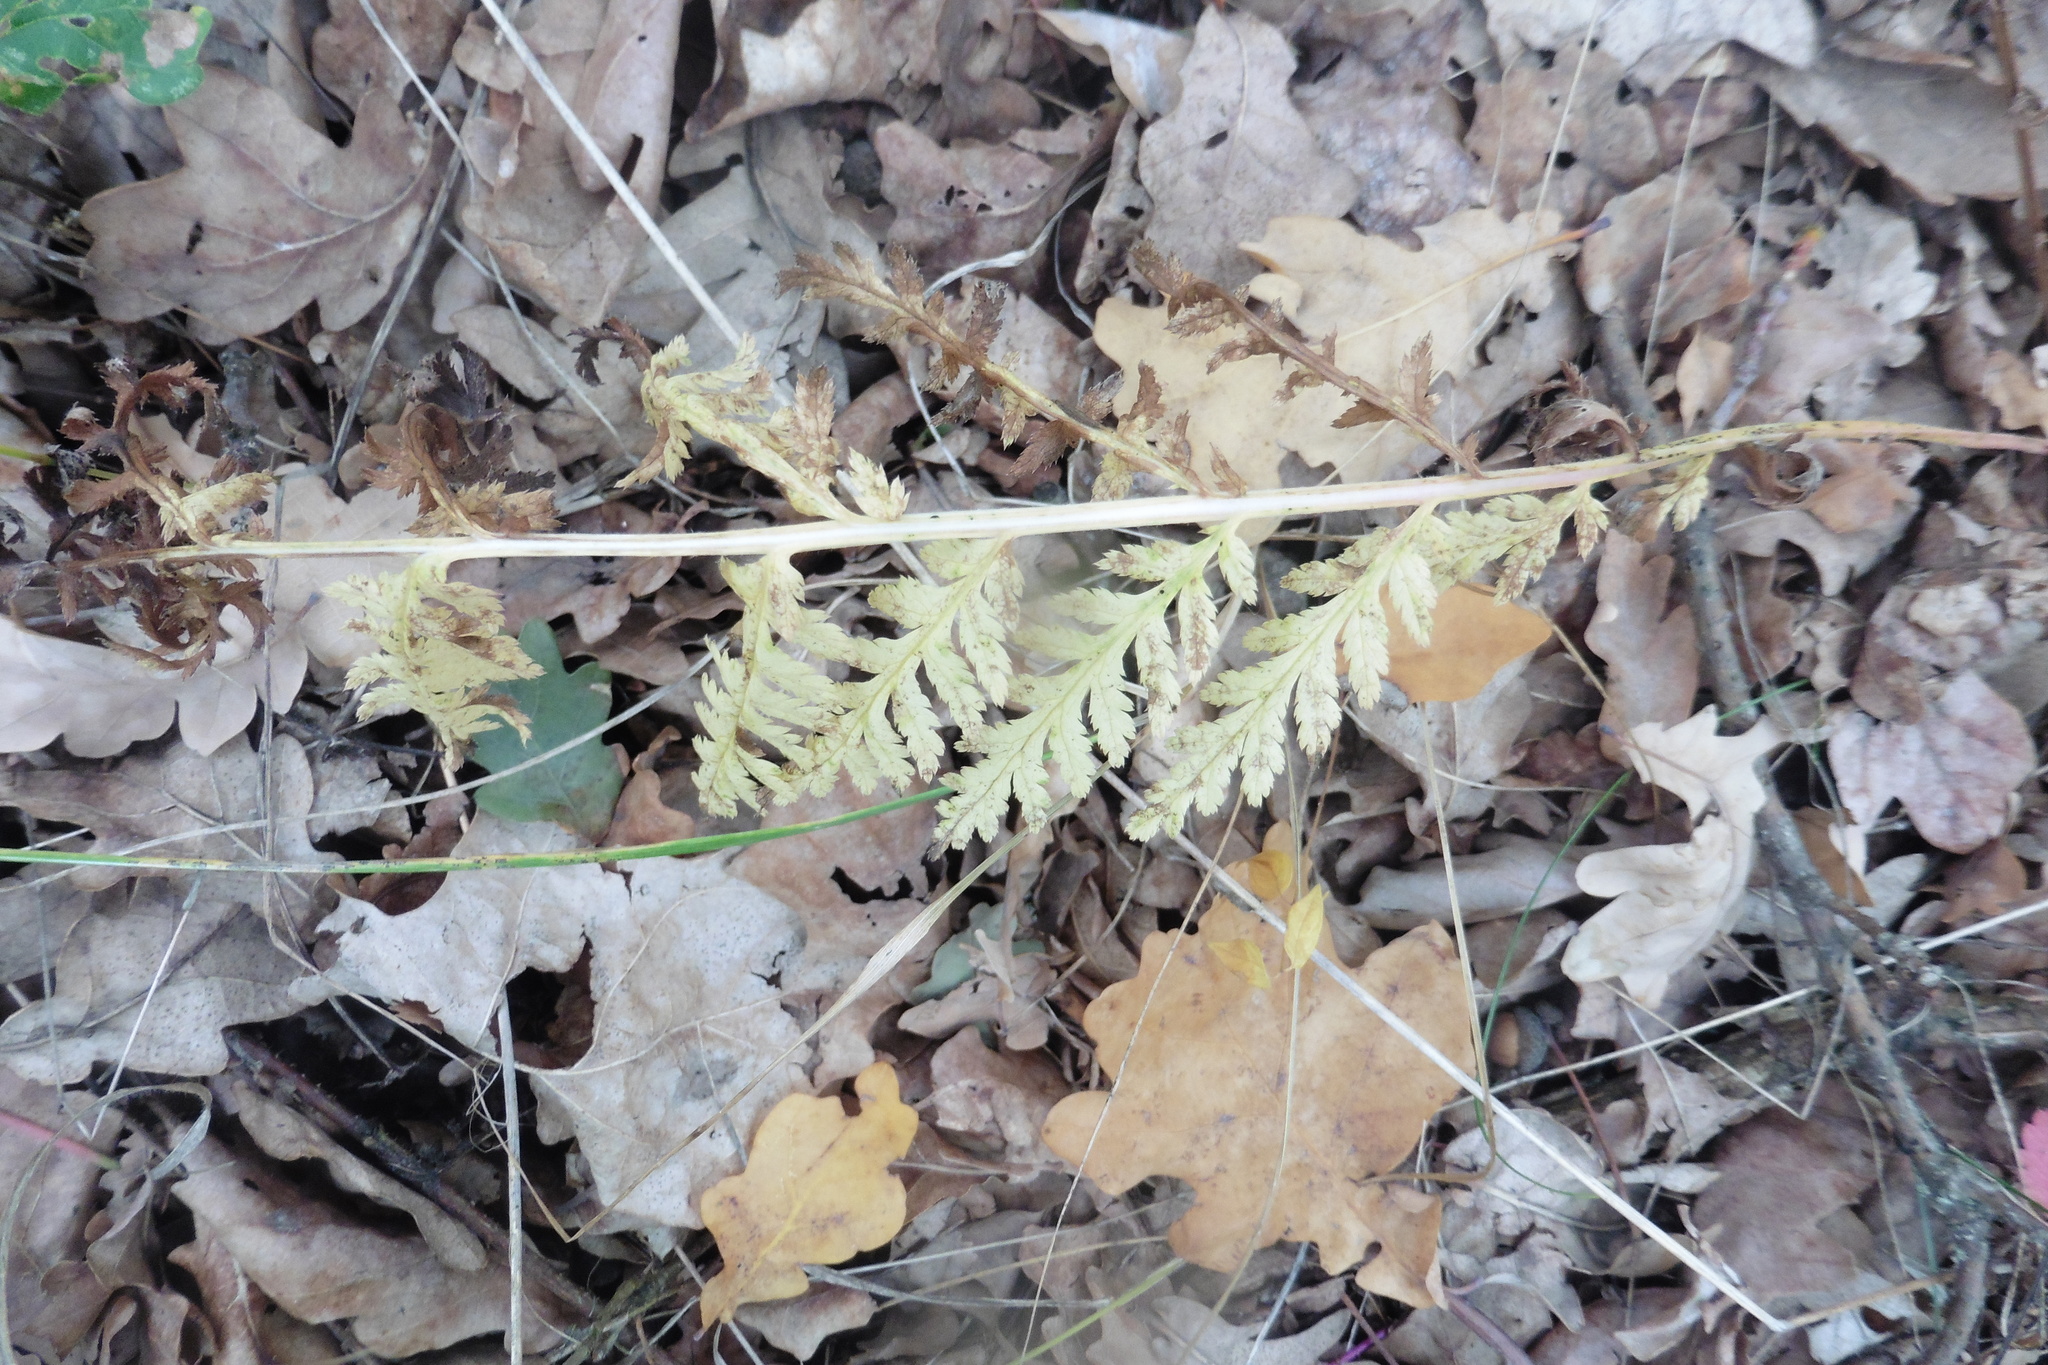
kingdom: Plantae
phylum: Tracheophyta
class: Magnoliopsida
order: Asterales
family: Asteraceae
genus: Tanacetum
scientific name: Tanacetum corymbosum
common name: Scentless feverfew
